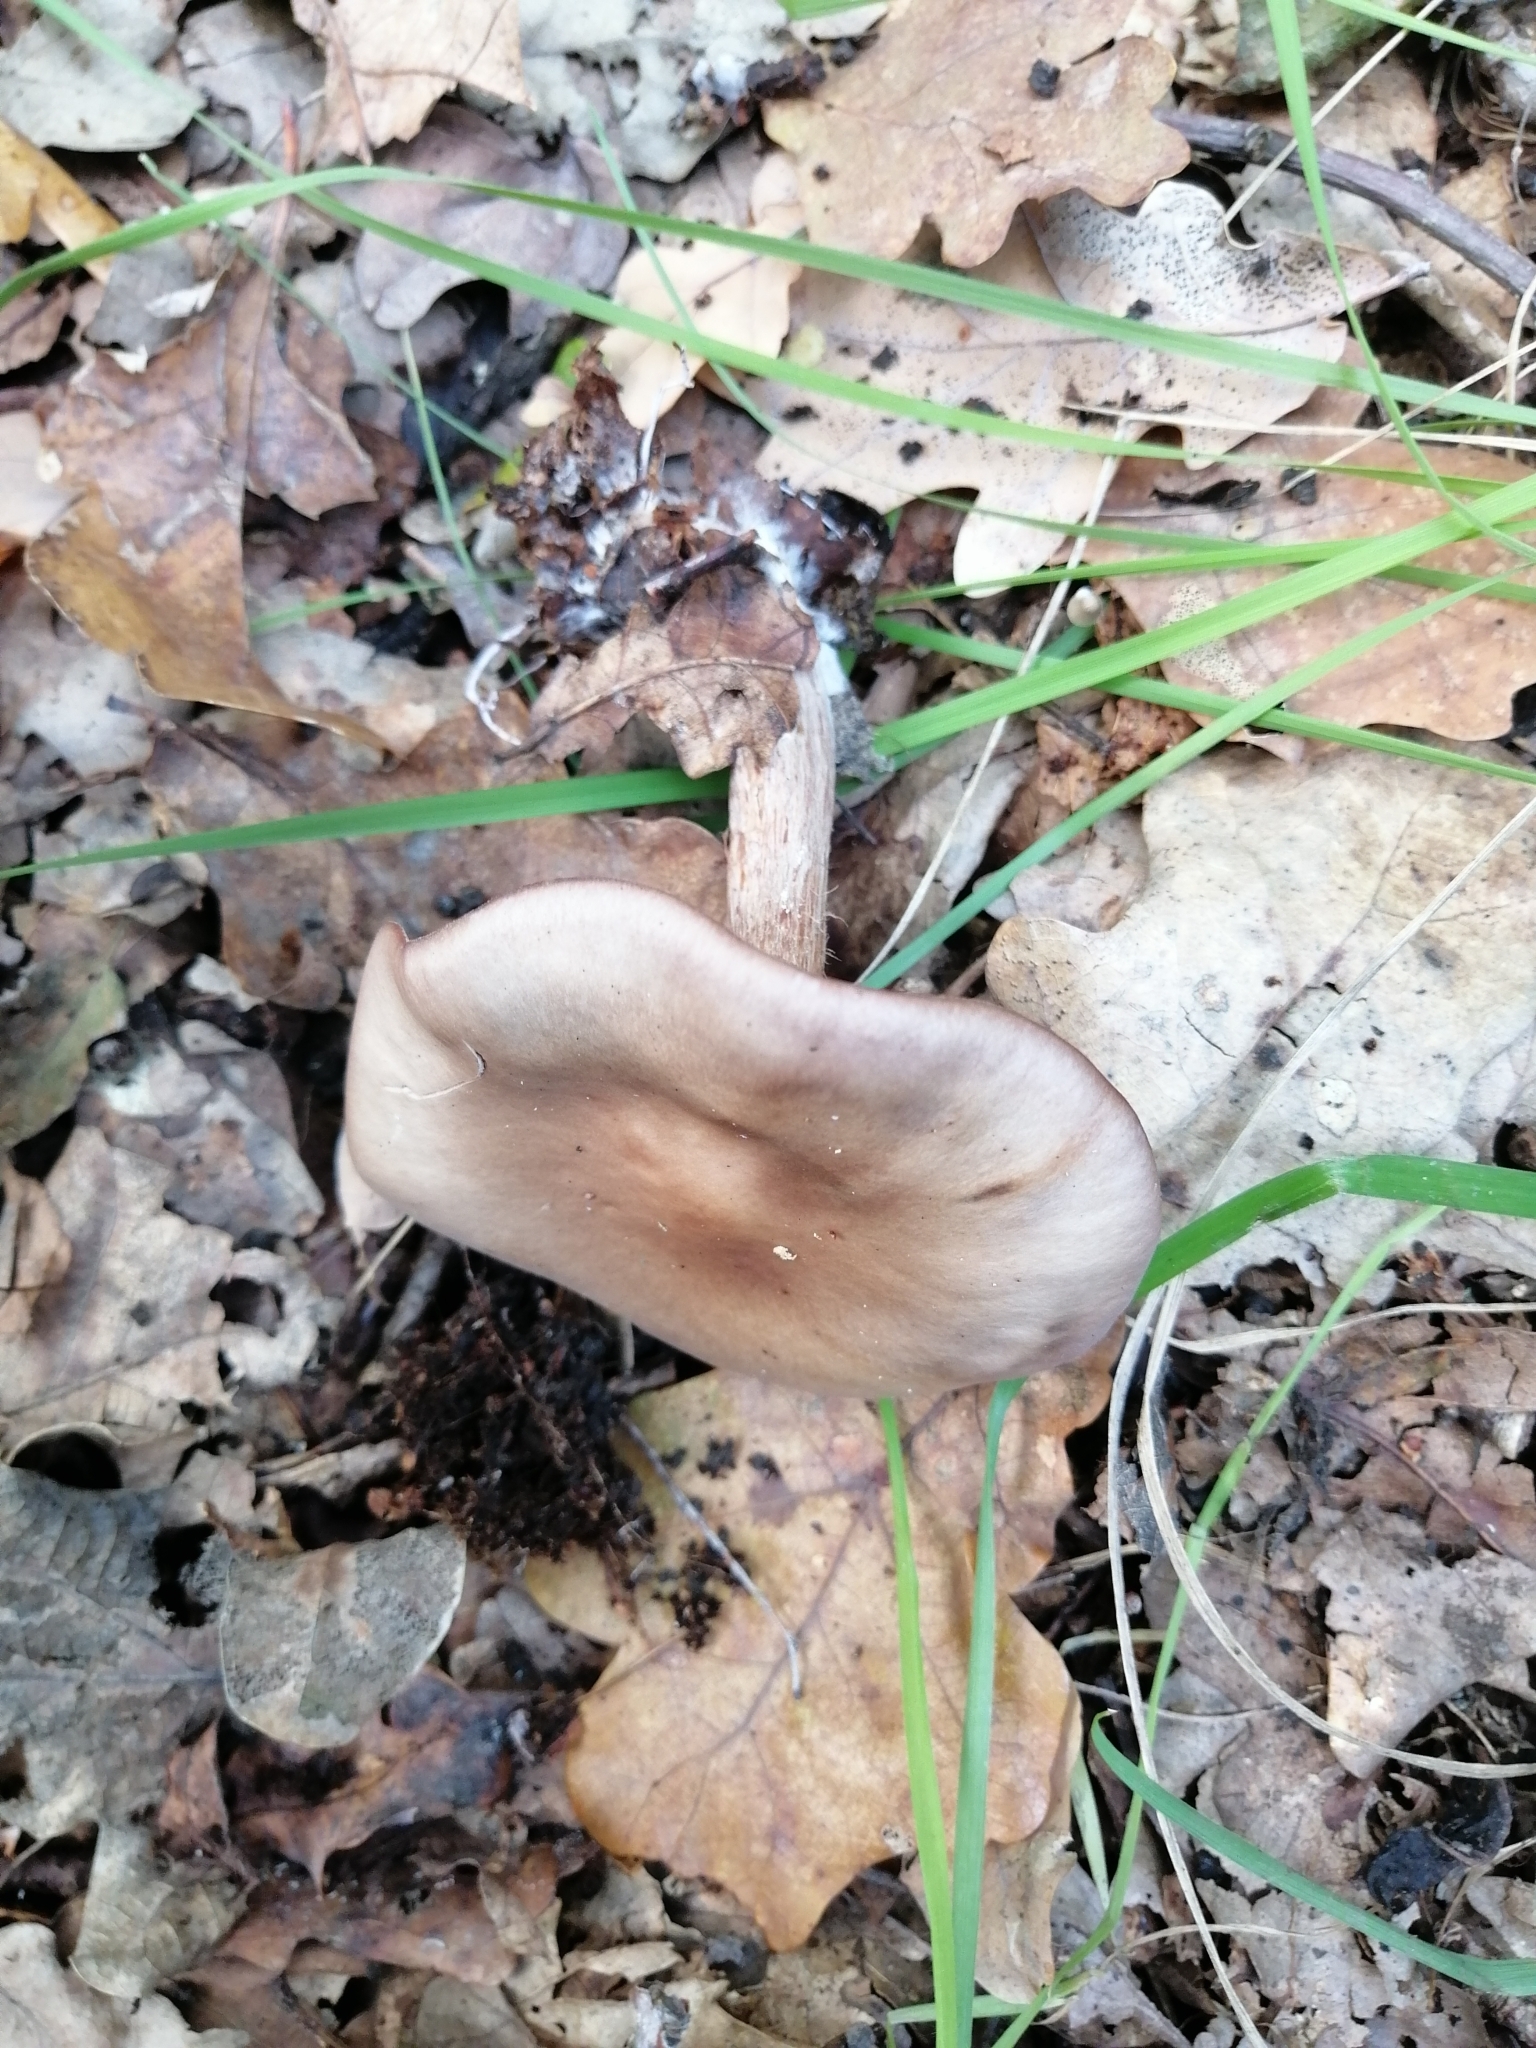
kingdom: Fungi
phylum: Basidiomycota
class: Agaricomycetes
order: Agaricales
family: Tricholomataceae
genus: Collybia
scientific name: Collybia
